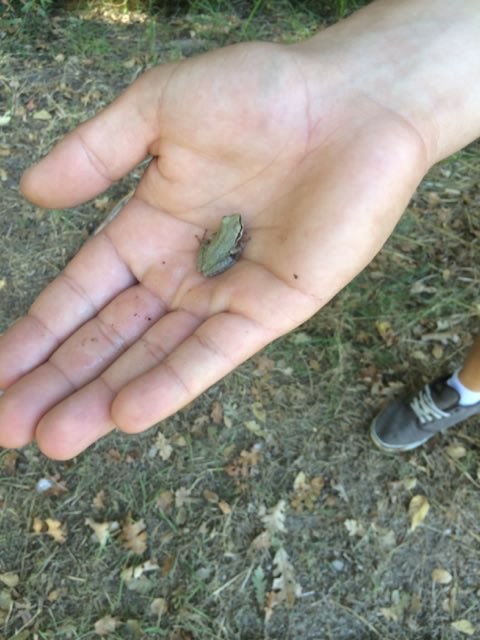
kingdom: Animalia
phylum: Chordata
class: Amphibia
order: Anura
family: Hylidae
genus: Pseudacris
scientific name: Pseudacris regilla
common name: Pacific chorus frog
